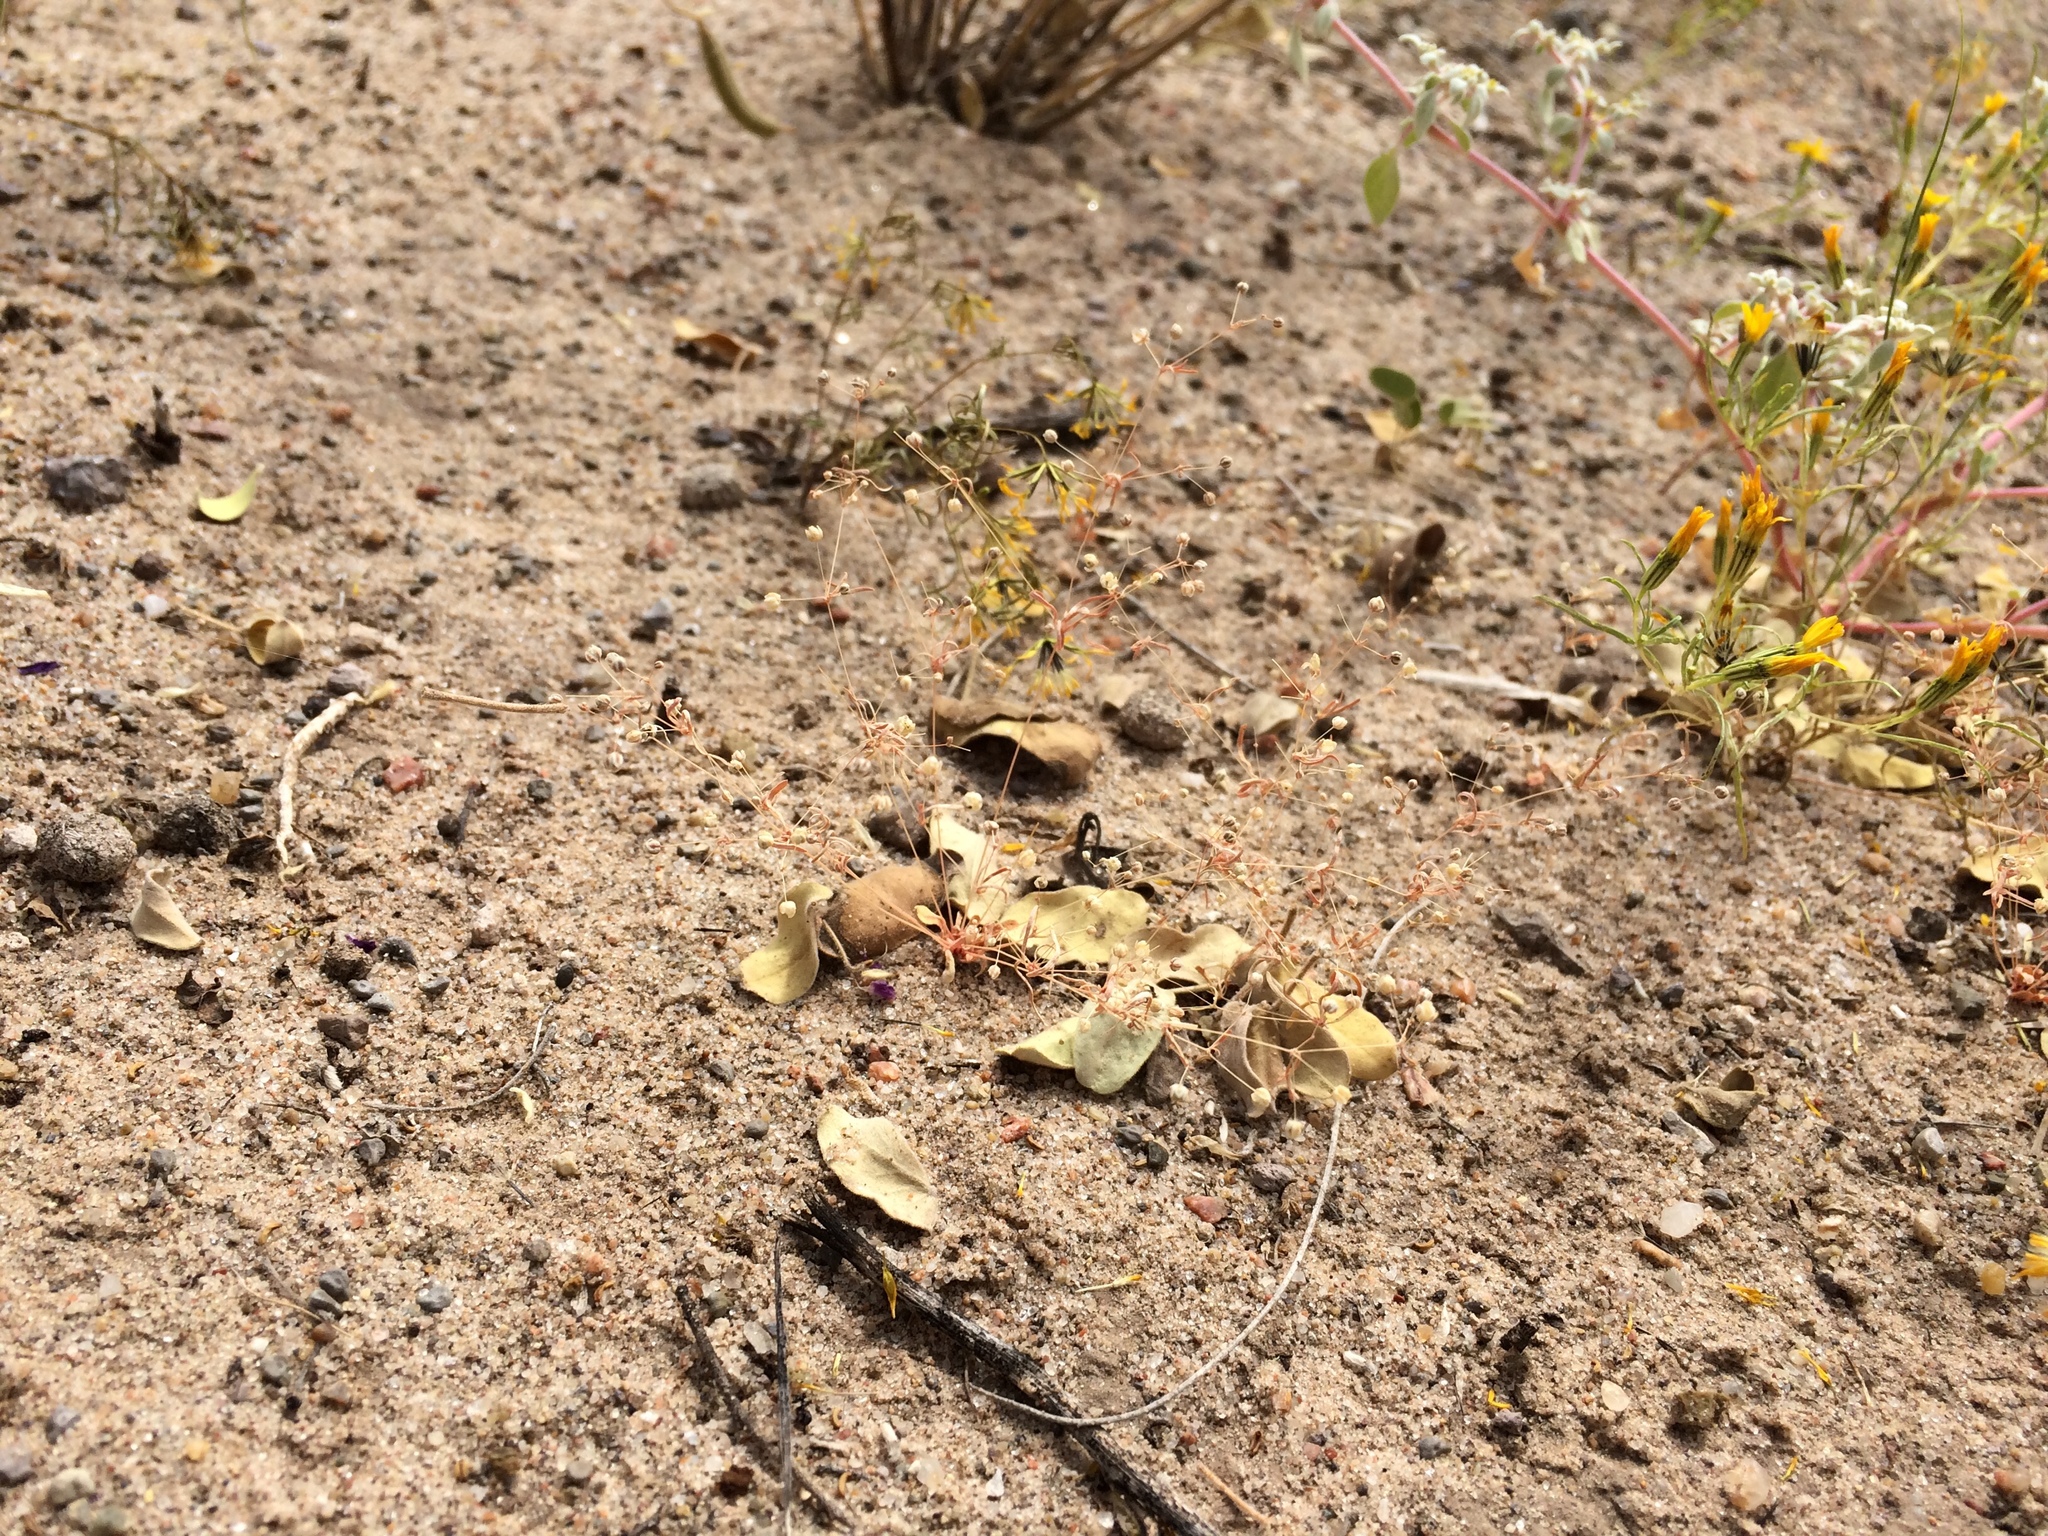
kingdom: Plantae
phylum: Tracheophyta
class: Magnoliopsida
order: Caryophyllales
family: Molluginaceae
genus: Hypertelis
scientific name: Hypertelis umbellata
